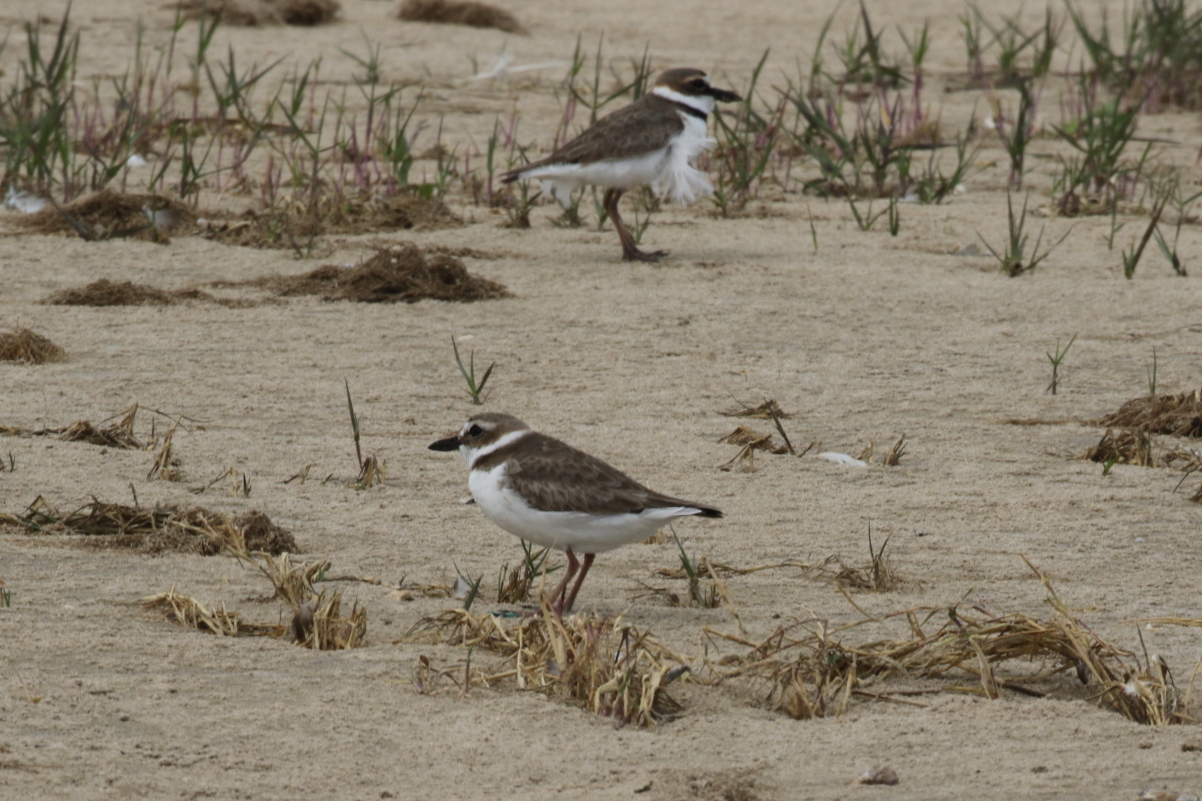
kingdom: Animalia
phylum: Chordata
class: Aves
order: Charadriiformes
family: Charadriidae
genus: Anarhynchus
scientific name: Anarhynchus
